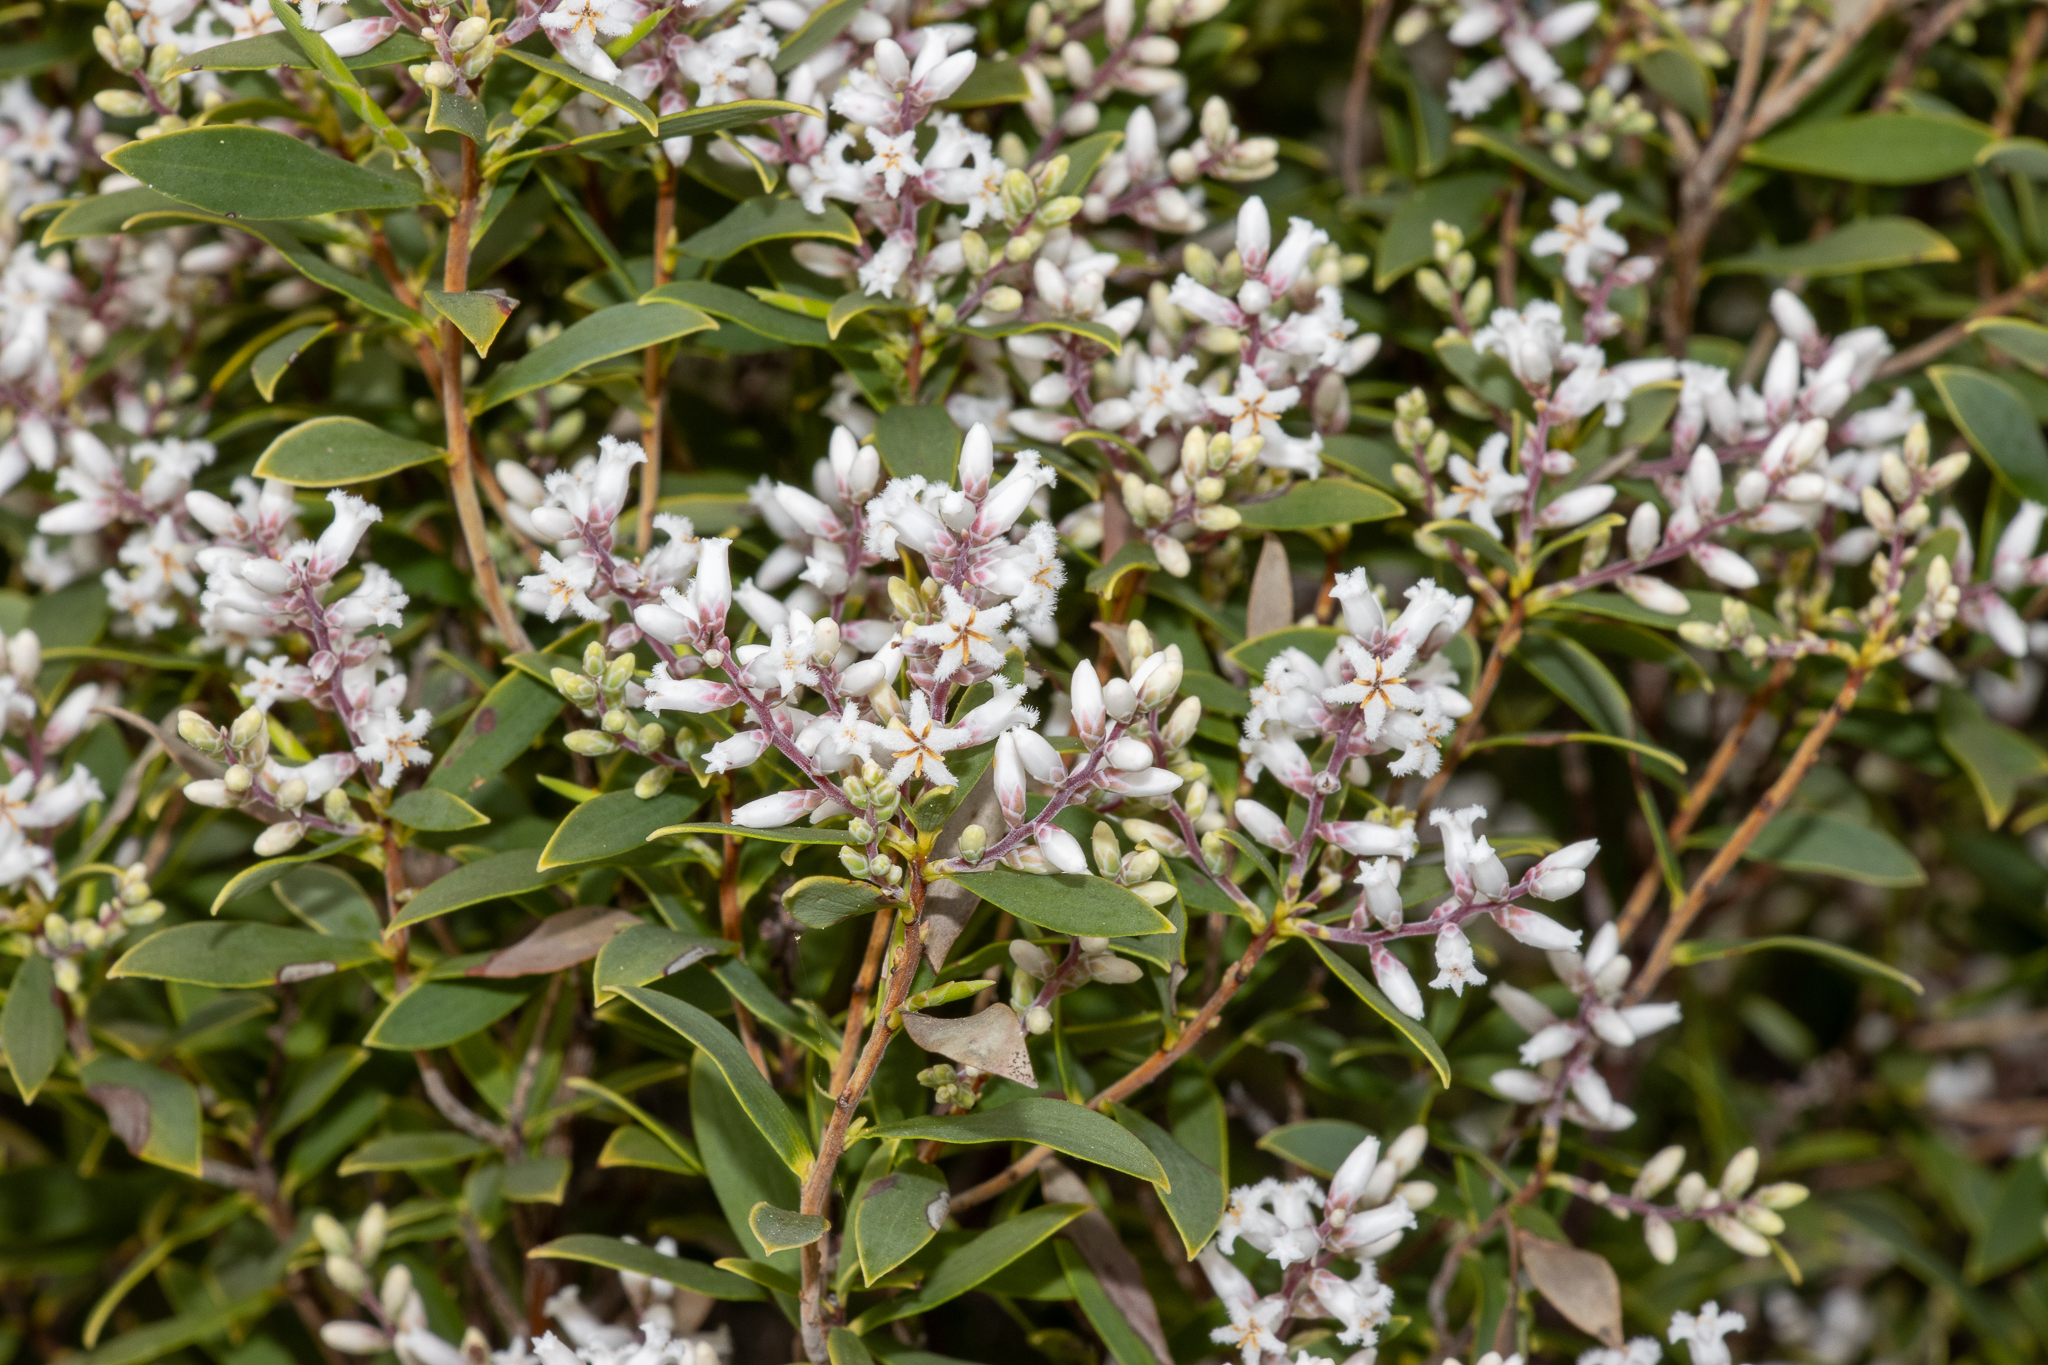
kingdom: Plantae
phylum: Tracheophyta
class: Magnoliopsida
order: Ericales
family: Ericaceae
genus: Leptecophylla
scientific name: Leptecophylla parvifolia
